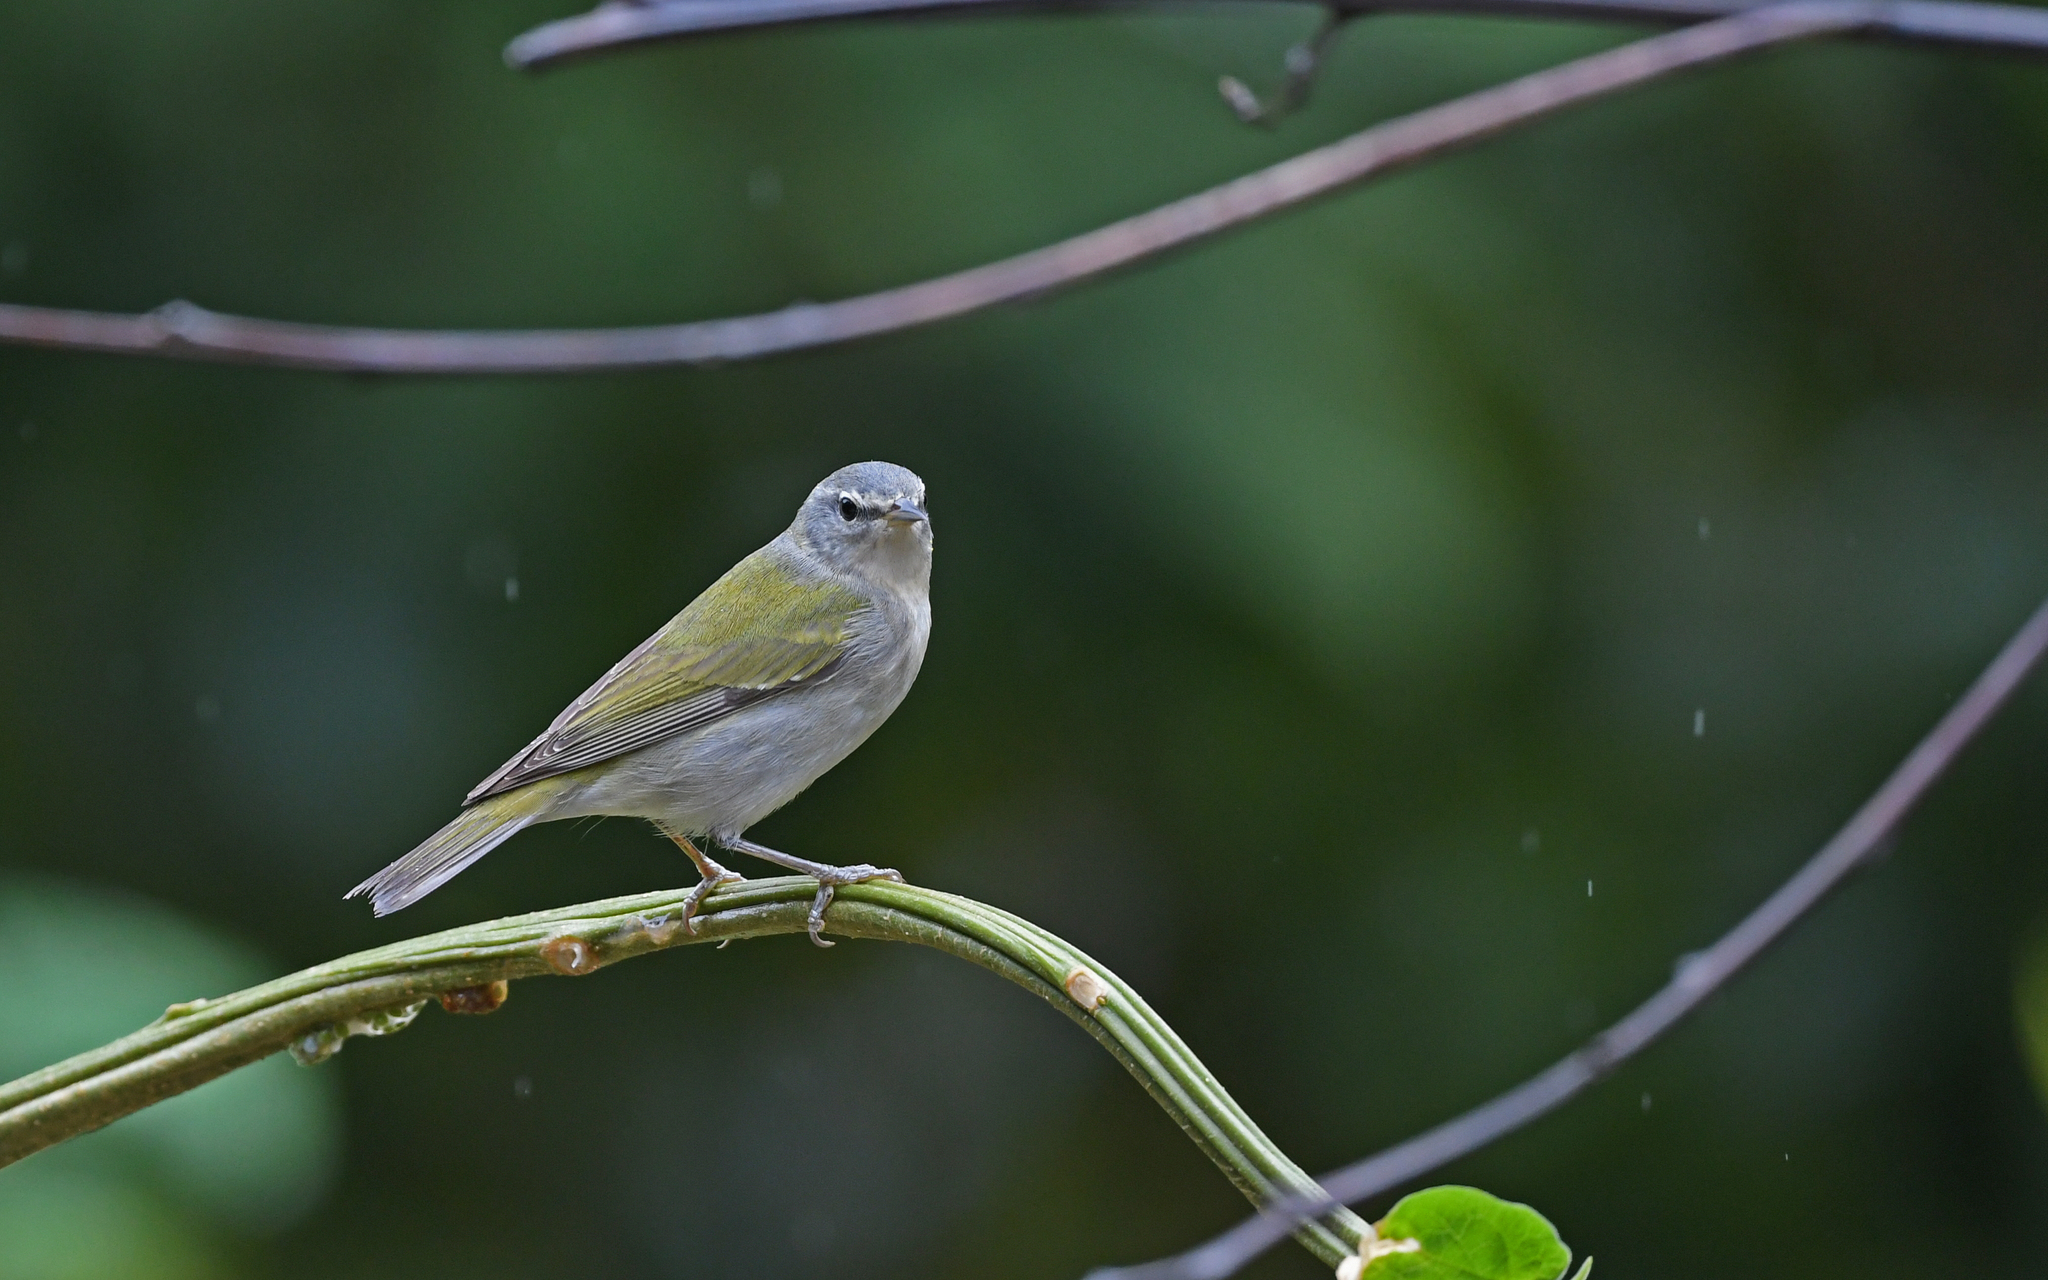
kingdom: Animalia
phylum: Chordata
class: Aves
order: Passeriformes
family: Parulidae
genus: Leiothlypis
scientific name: Leiothlypis peregrina
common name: Tennessee warbler
